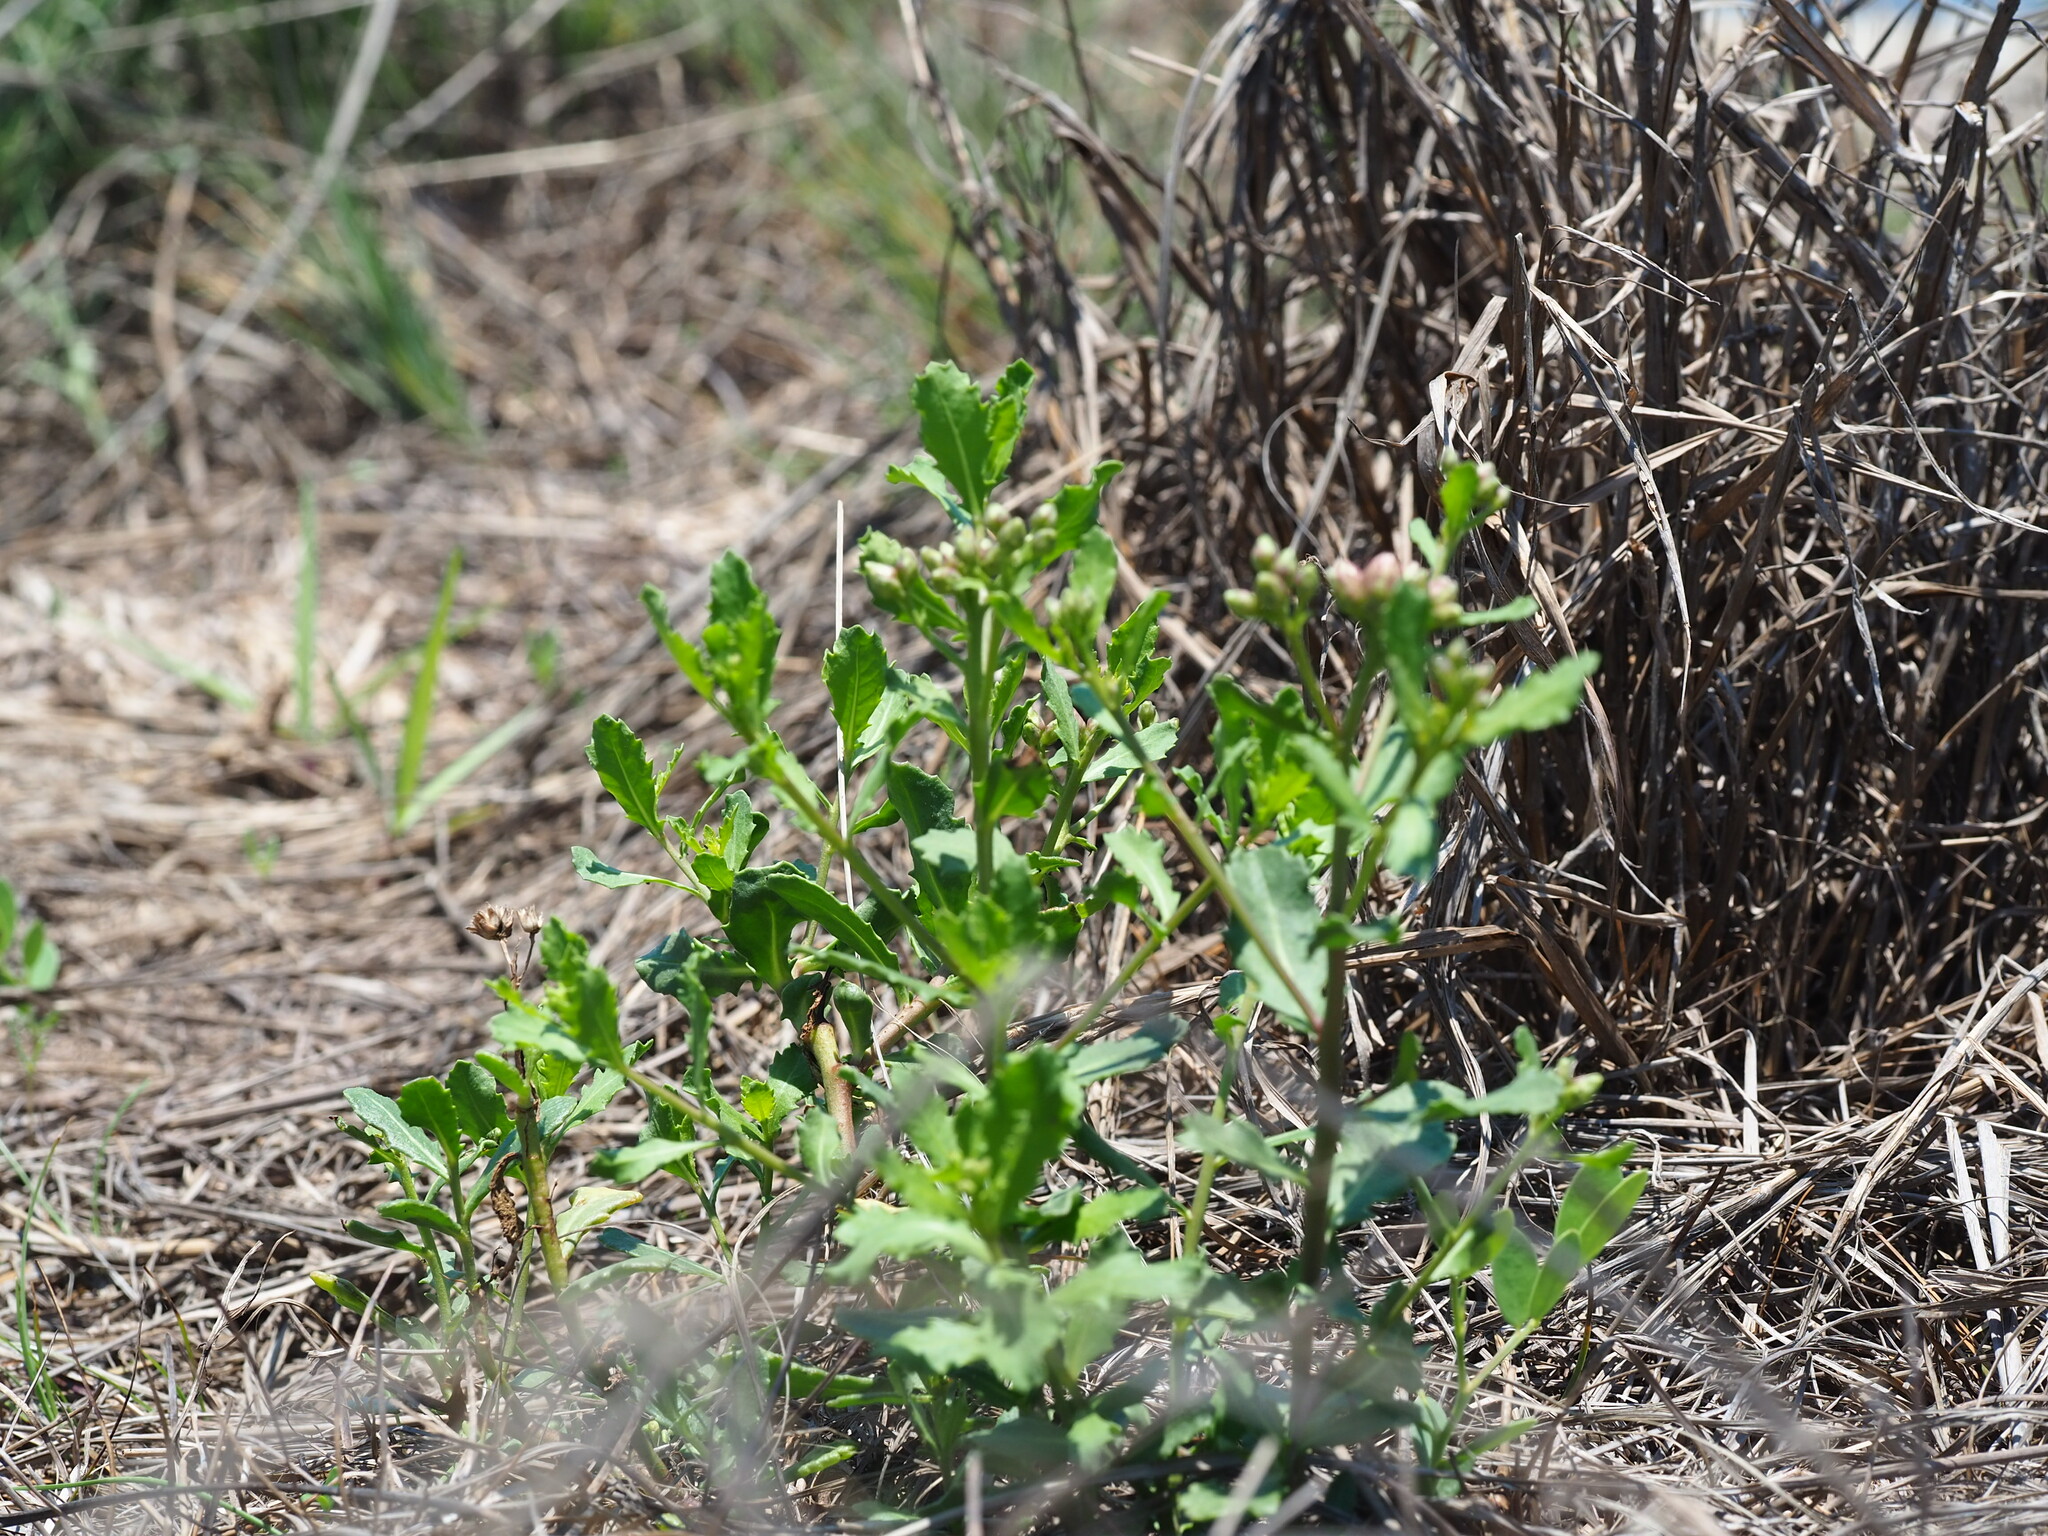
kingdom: Plantae
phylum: Tracheophyta
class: Magnoliopsida
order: Asterales
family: Asteraceae
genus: Pluchea
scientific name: Pluchea pteropoda
